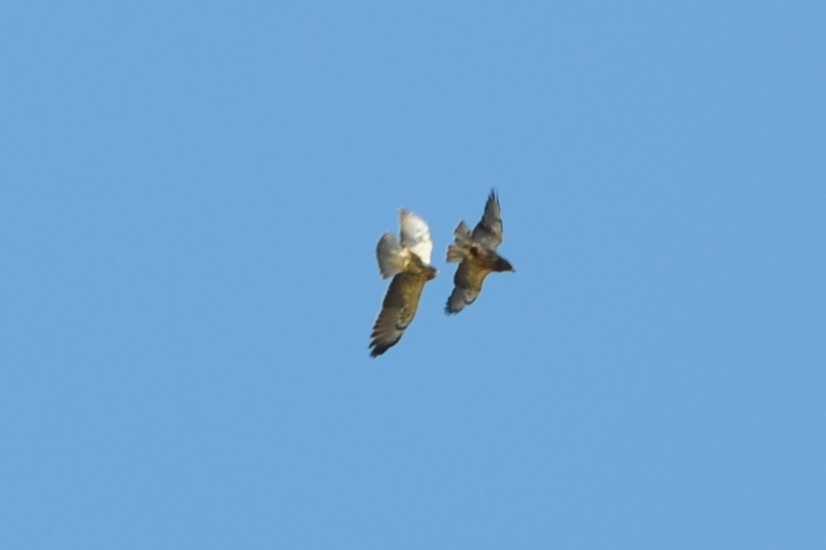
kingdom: Animalia
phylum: Chordata
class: Aves
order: Accipitriformes
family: Accipitridae
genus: Buteo
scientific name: Buteo swainsoni
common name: Swainson's hawk
